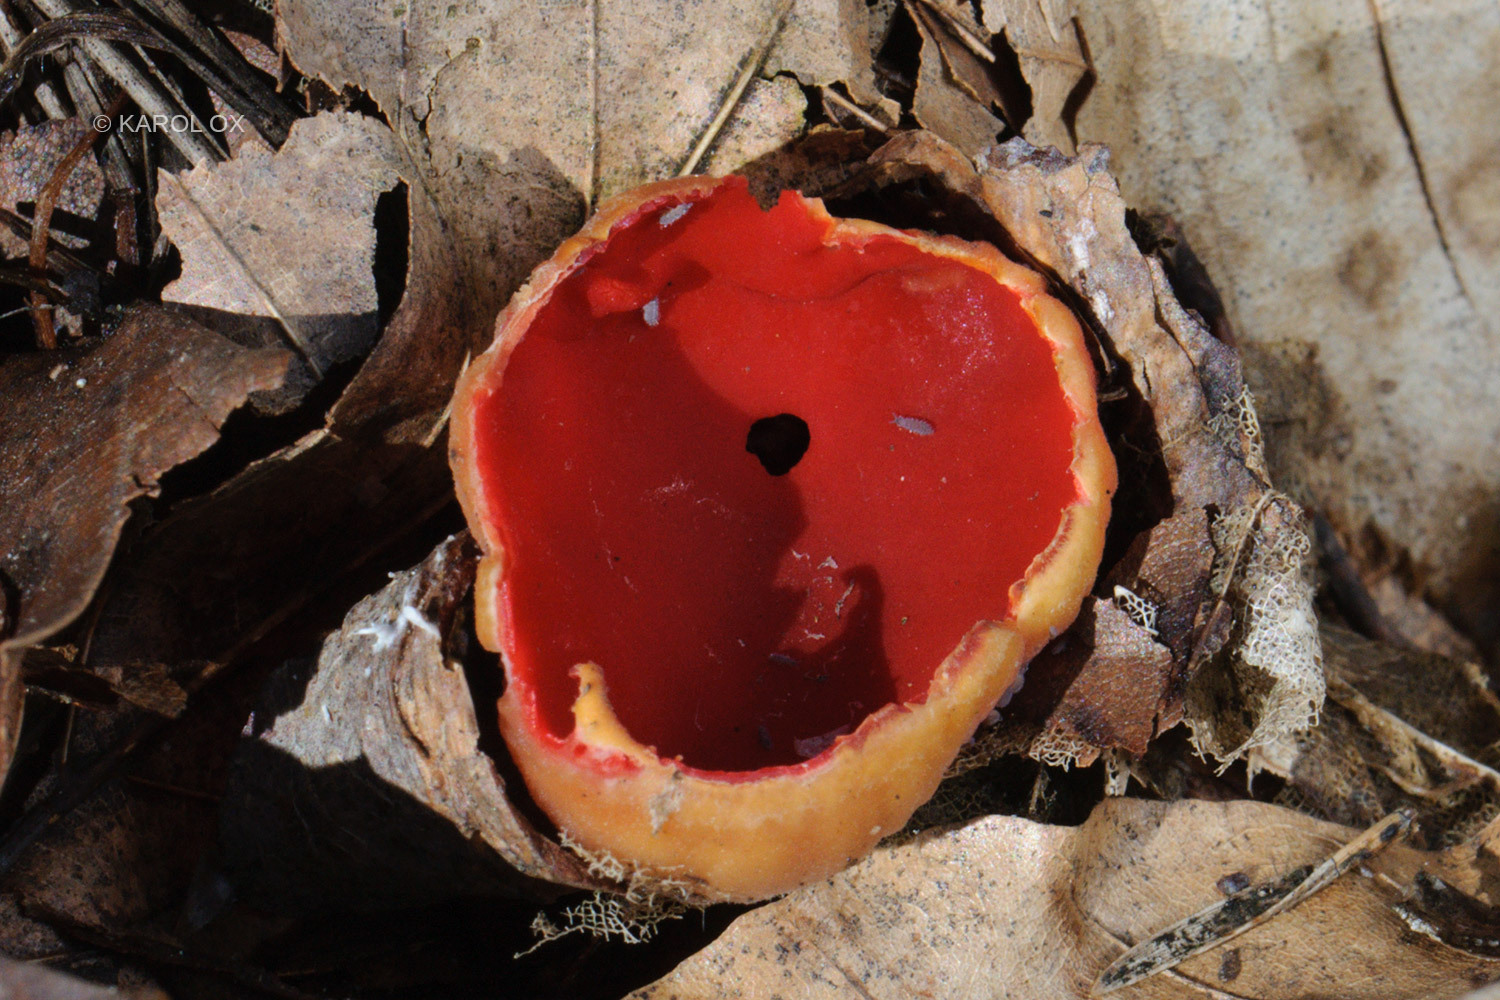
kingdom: Fungi
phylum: Ascomycota
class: Pezizomycetes
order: Pezizales
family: Sarcoscyphaceae
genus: Sarcoscypha
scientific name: Sarcoscypha
